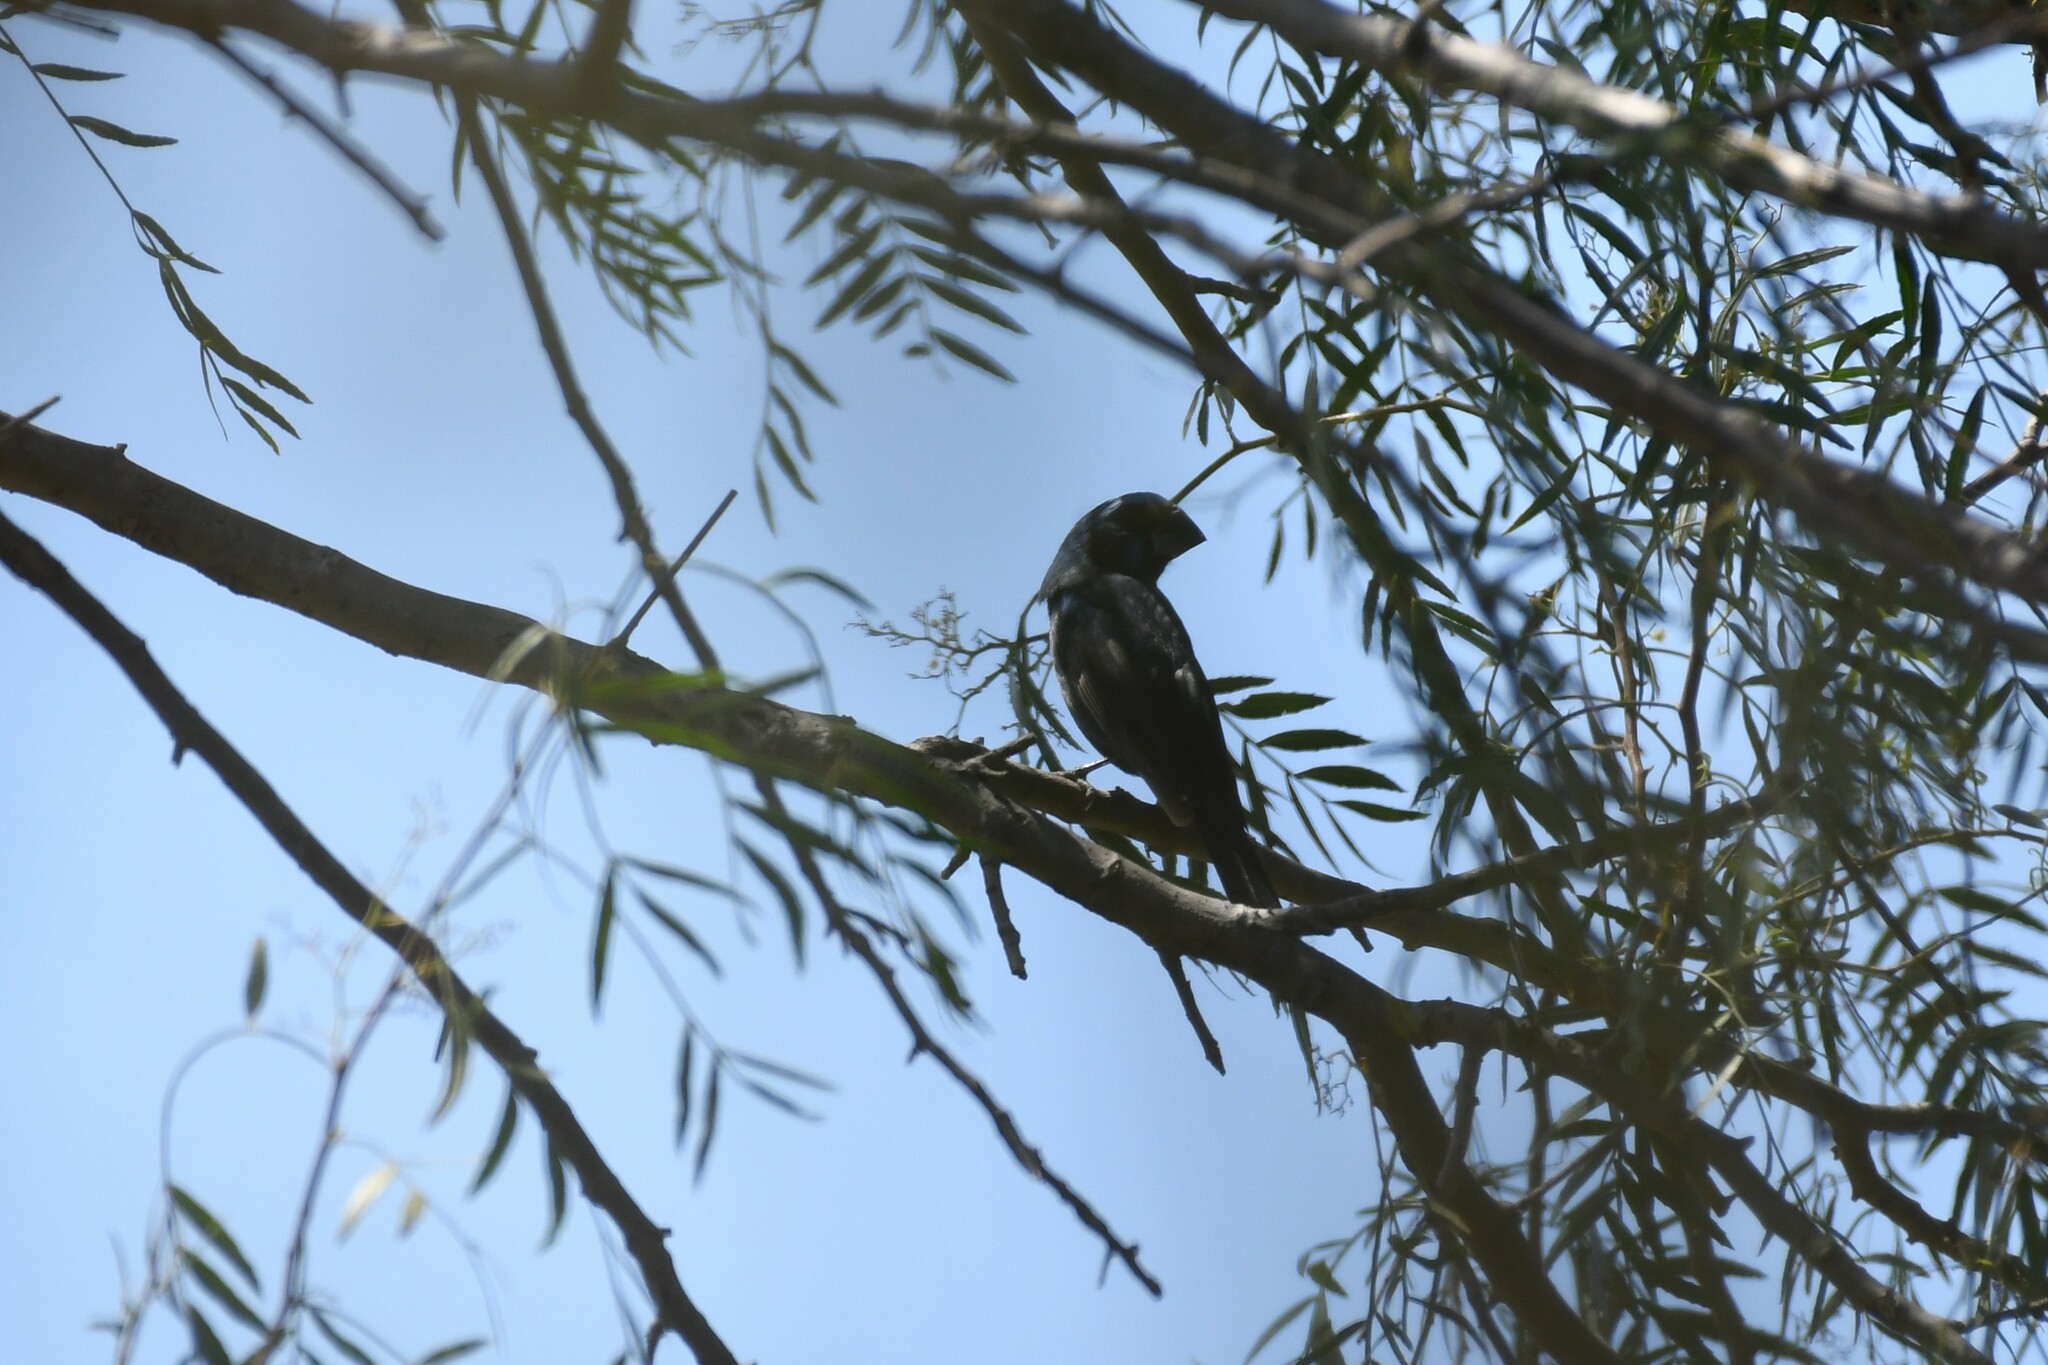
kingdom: Animalia
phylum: Chordata
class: Aves
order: Passeriformes
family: Cardinalidae
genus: Cyanoloxia
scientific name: Cyanoloxia brissonii
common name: Ultramarine grosbeak
